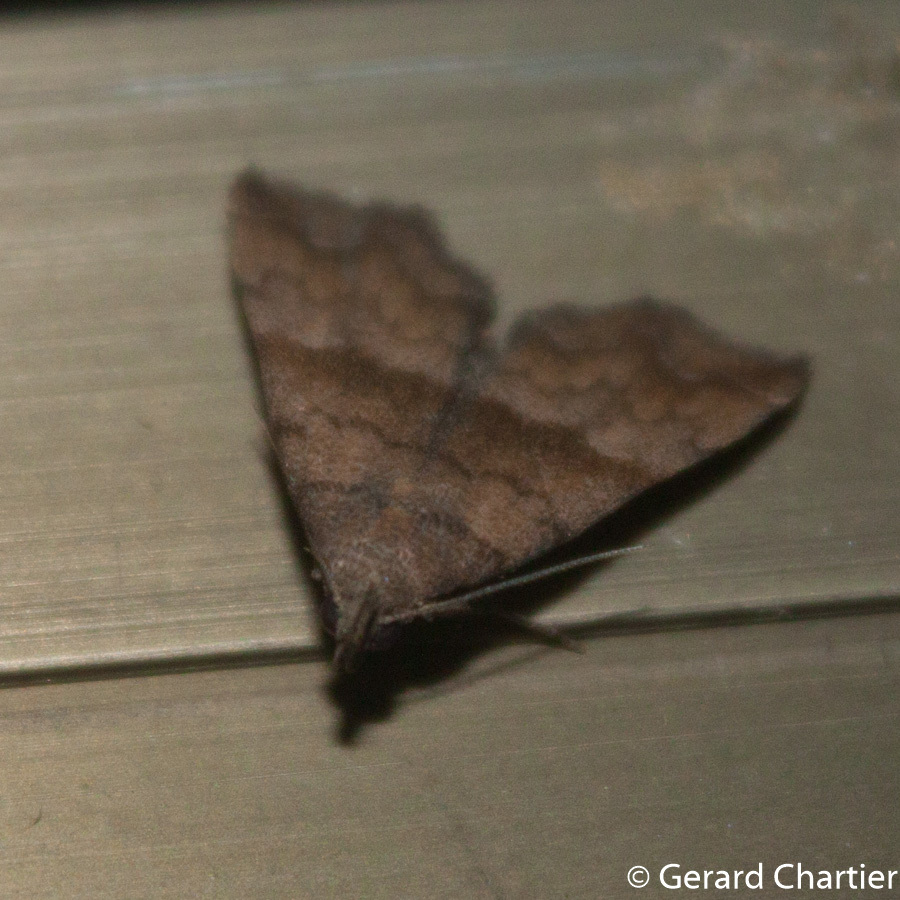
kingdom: Animalia
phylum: Arthropoda
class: Insecta
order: Lepidoptera
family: Erebidae
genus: Polypogon
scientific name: Polypogon Hipoepa fractalis
